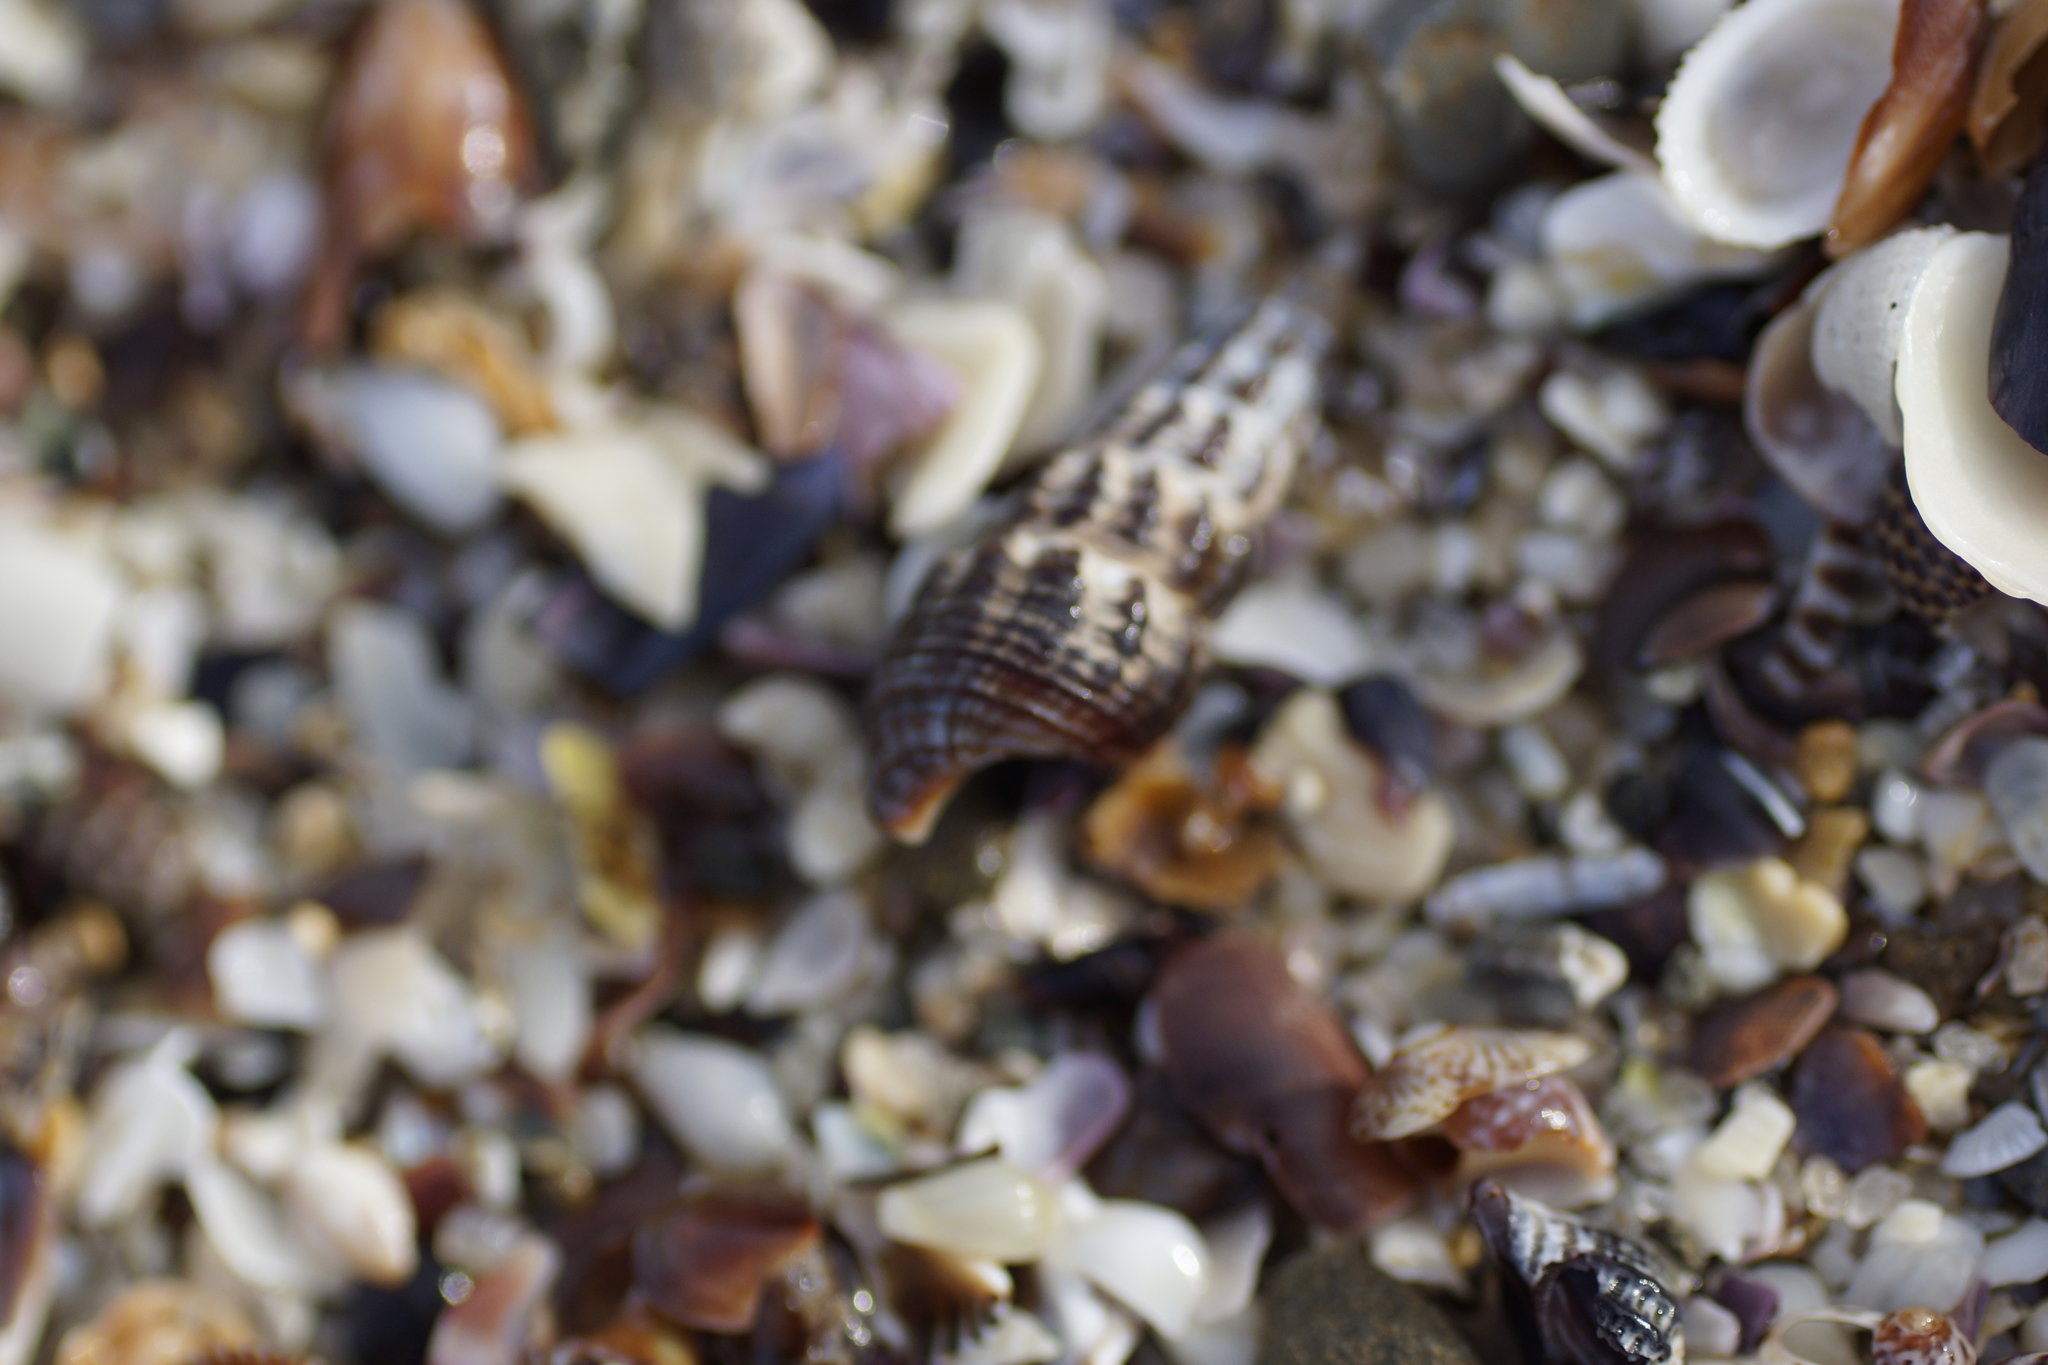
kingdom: Animalia
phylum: Mollusca
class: Gastropoda
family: Batillariidae
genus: Batillaria
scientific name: Batillaria australis
